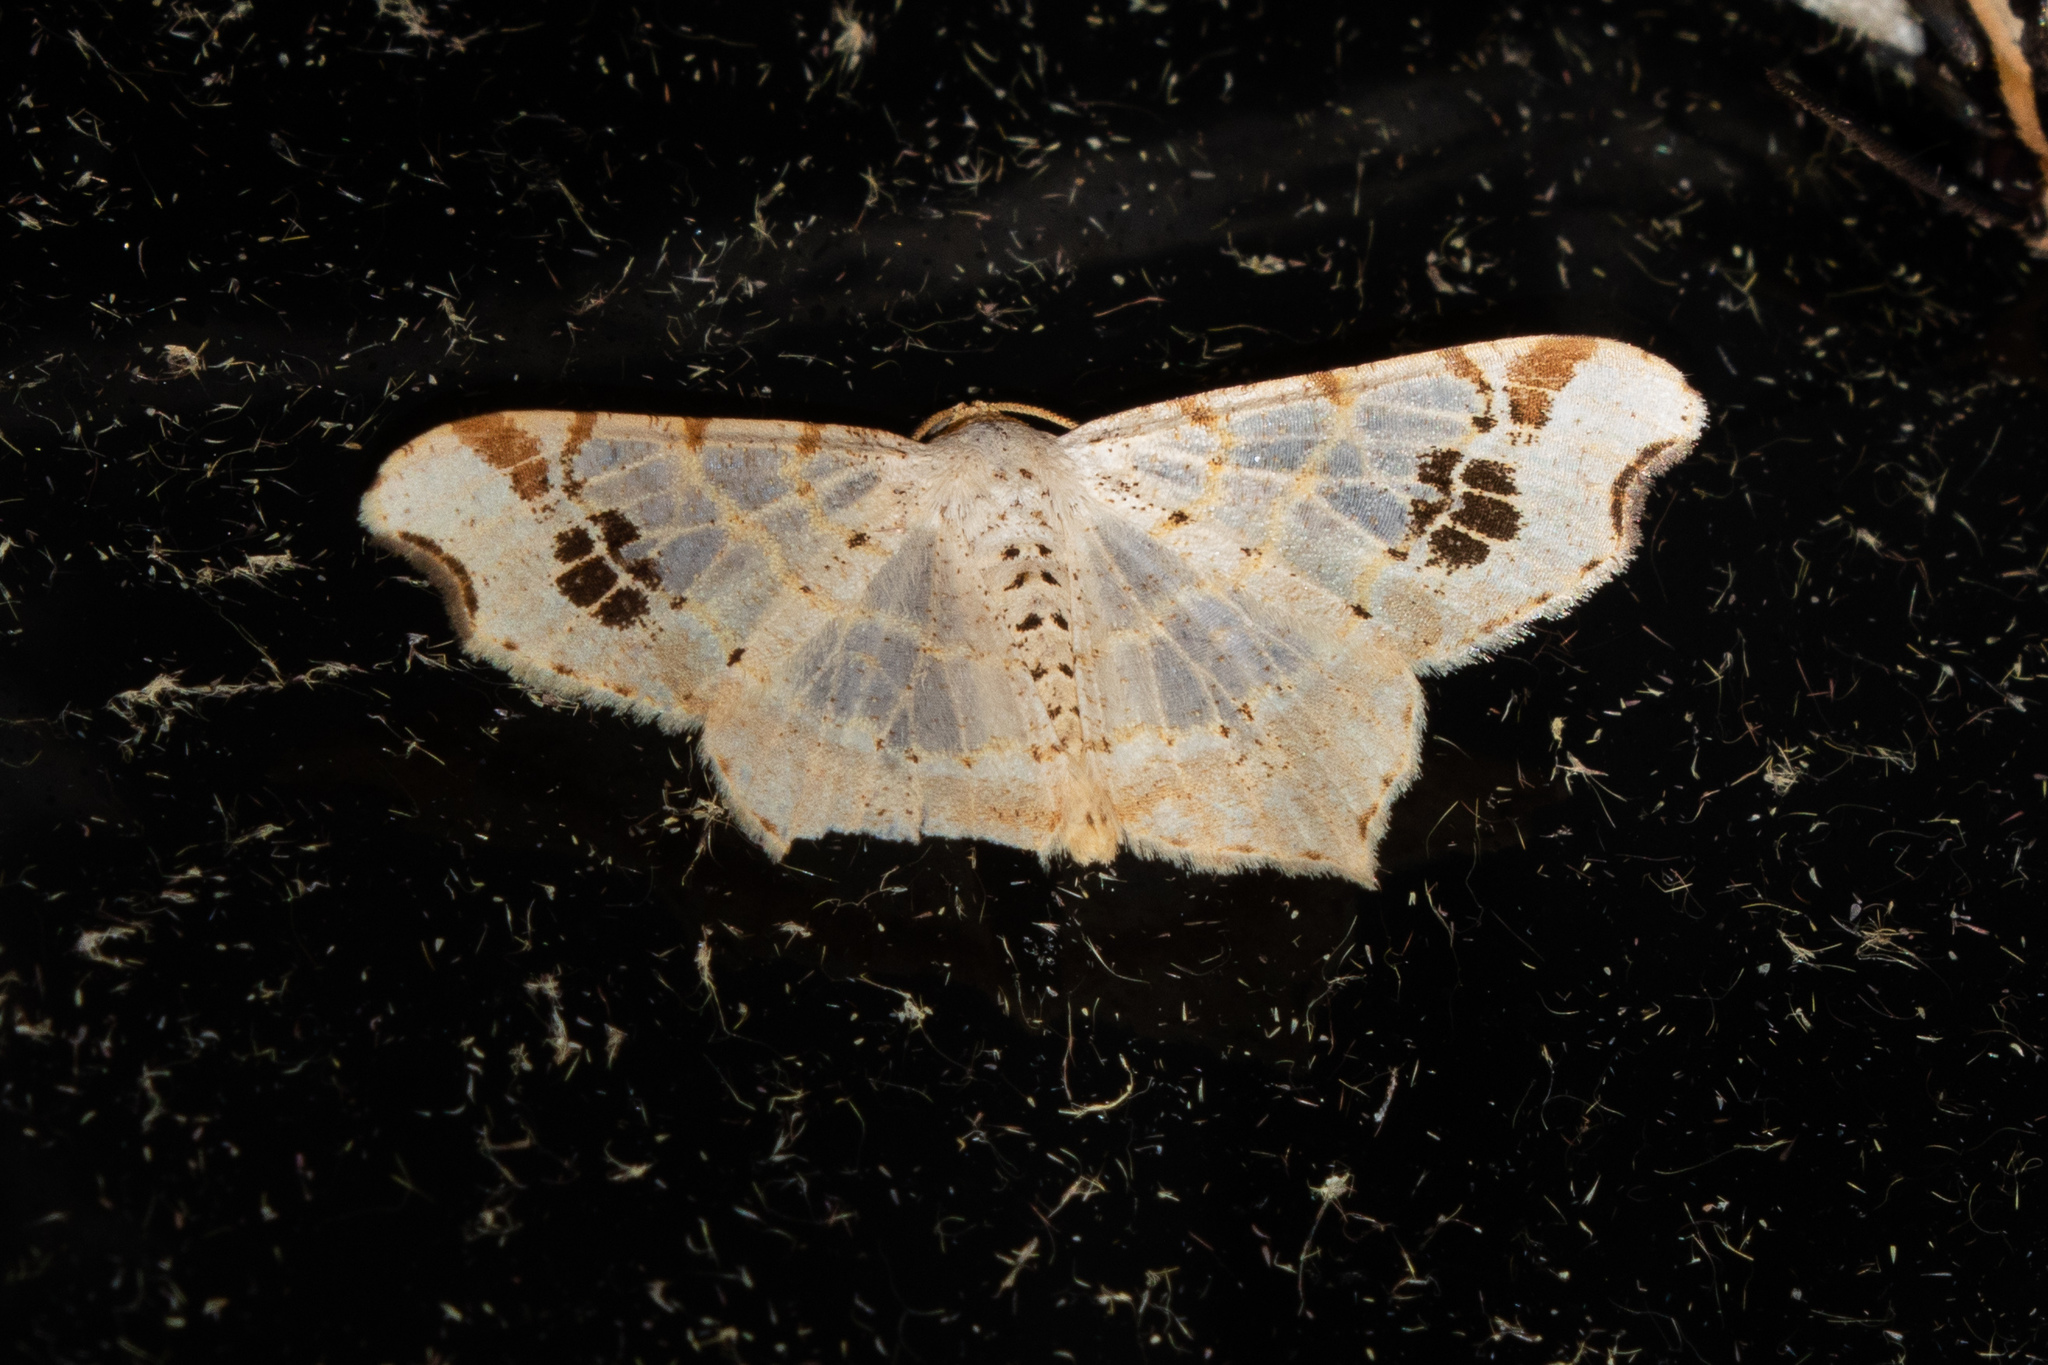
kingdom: Animalia
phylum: Arthropoda
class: Insecta
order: Lepidoptera
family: Geometridae
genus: Macaria
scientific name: Macaria aemulataria
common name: Common angle
